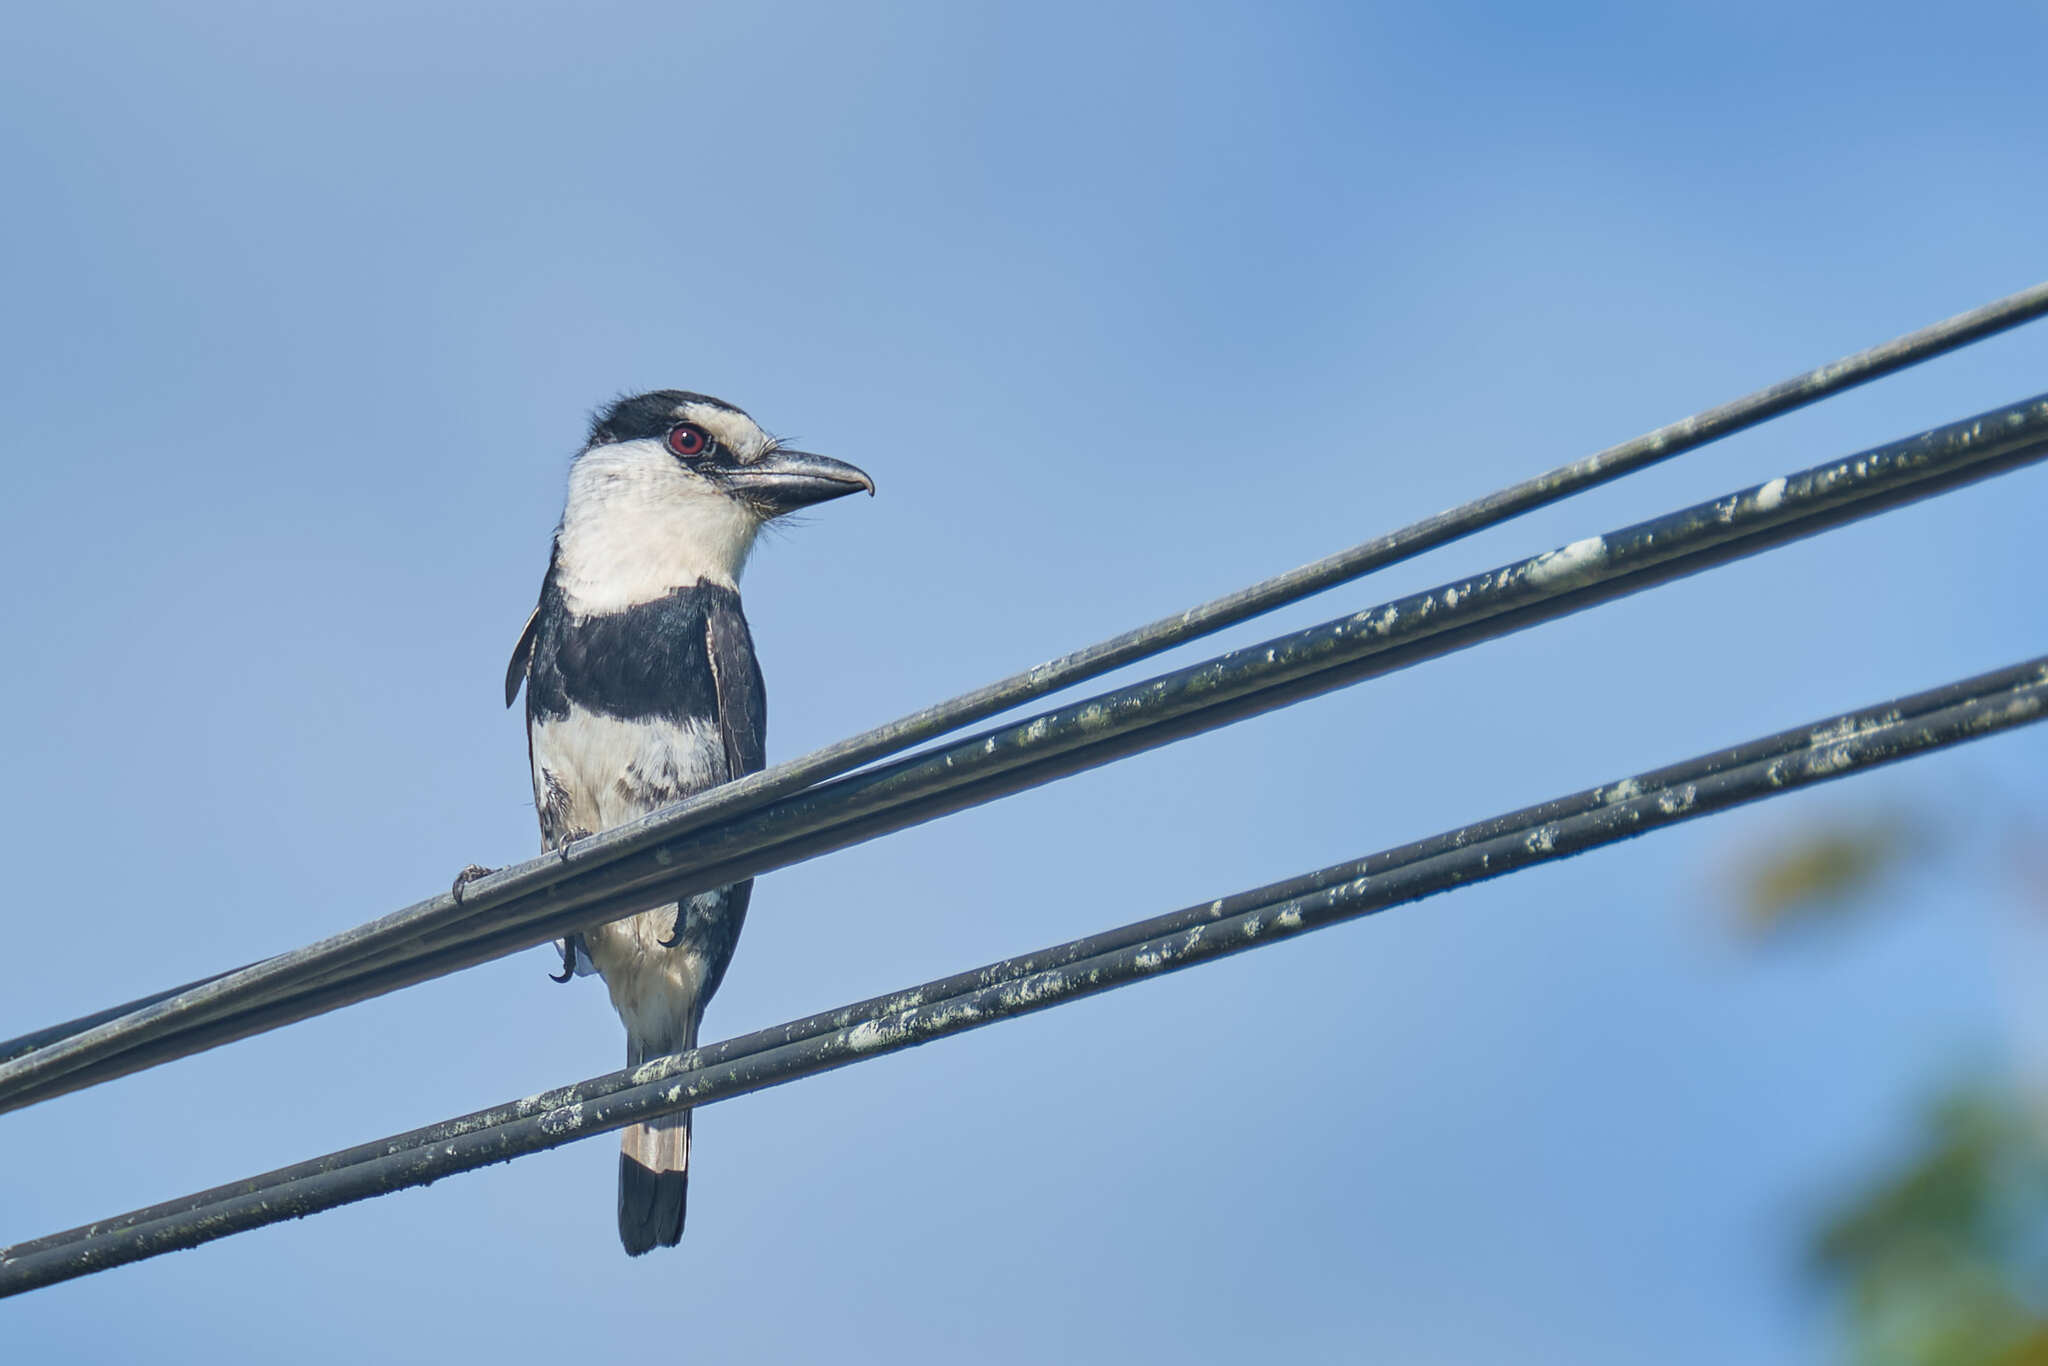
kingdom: Animalia
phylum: Chordata
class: Aves
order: Piciformes
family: Bucconidae
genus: Notharchus
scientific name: Notharchus hyperrhynchus
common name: White-necked puffbird
